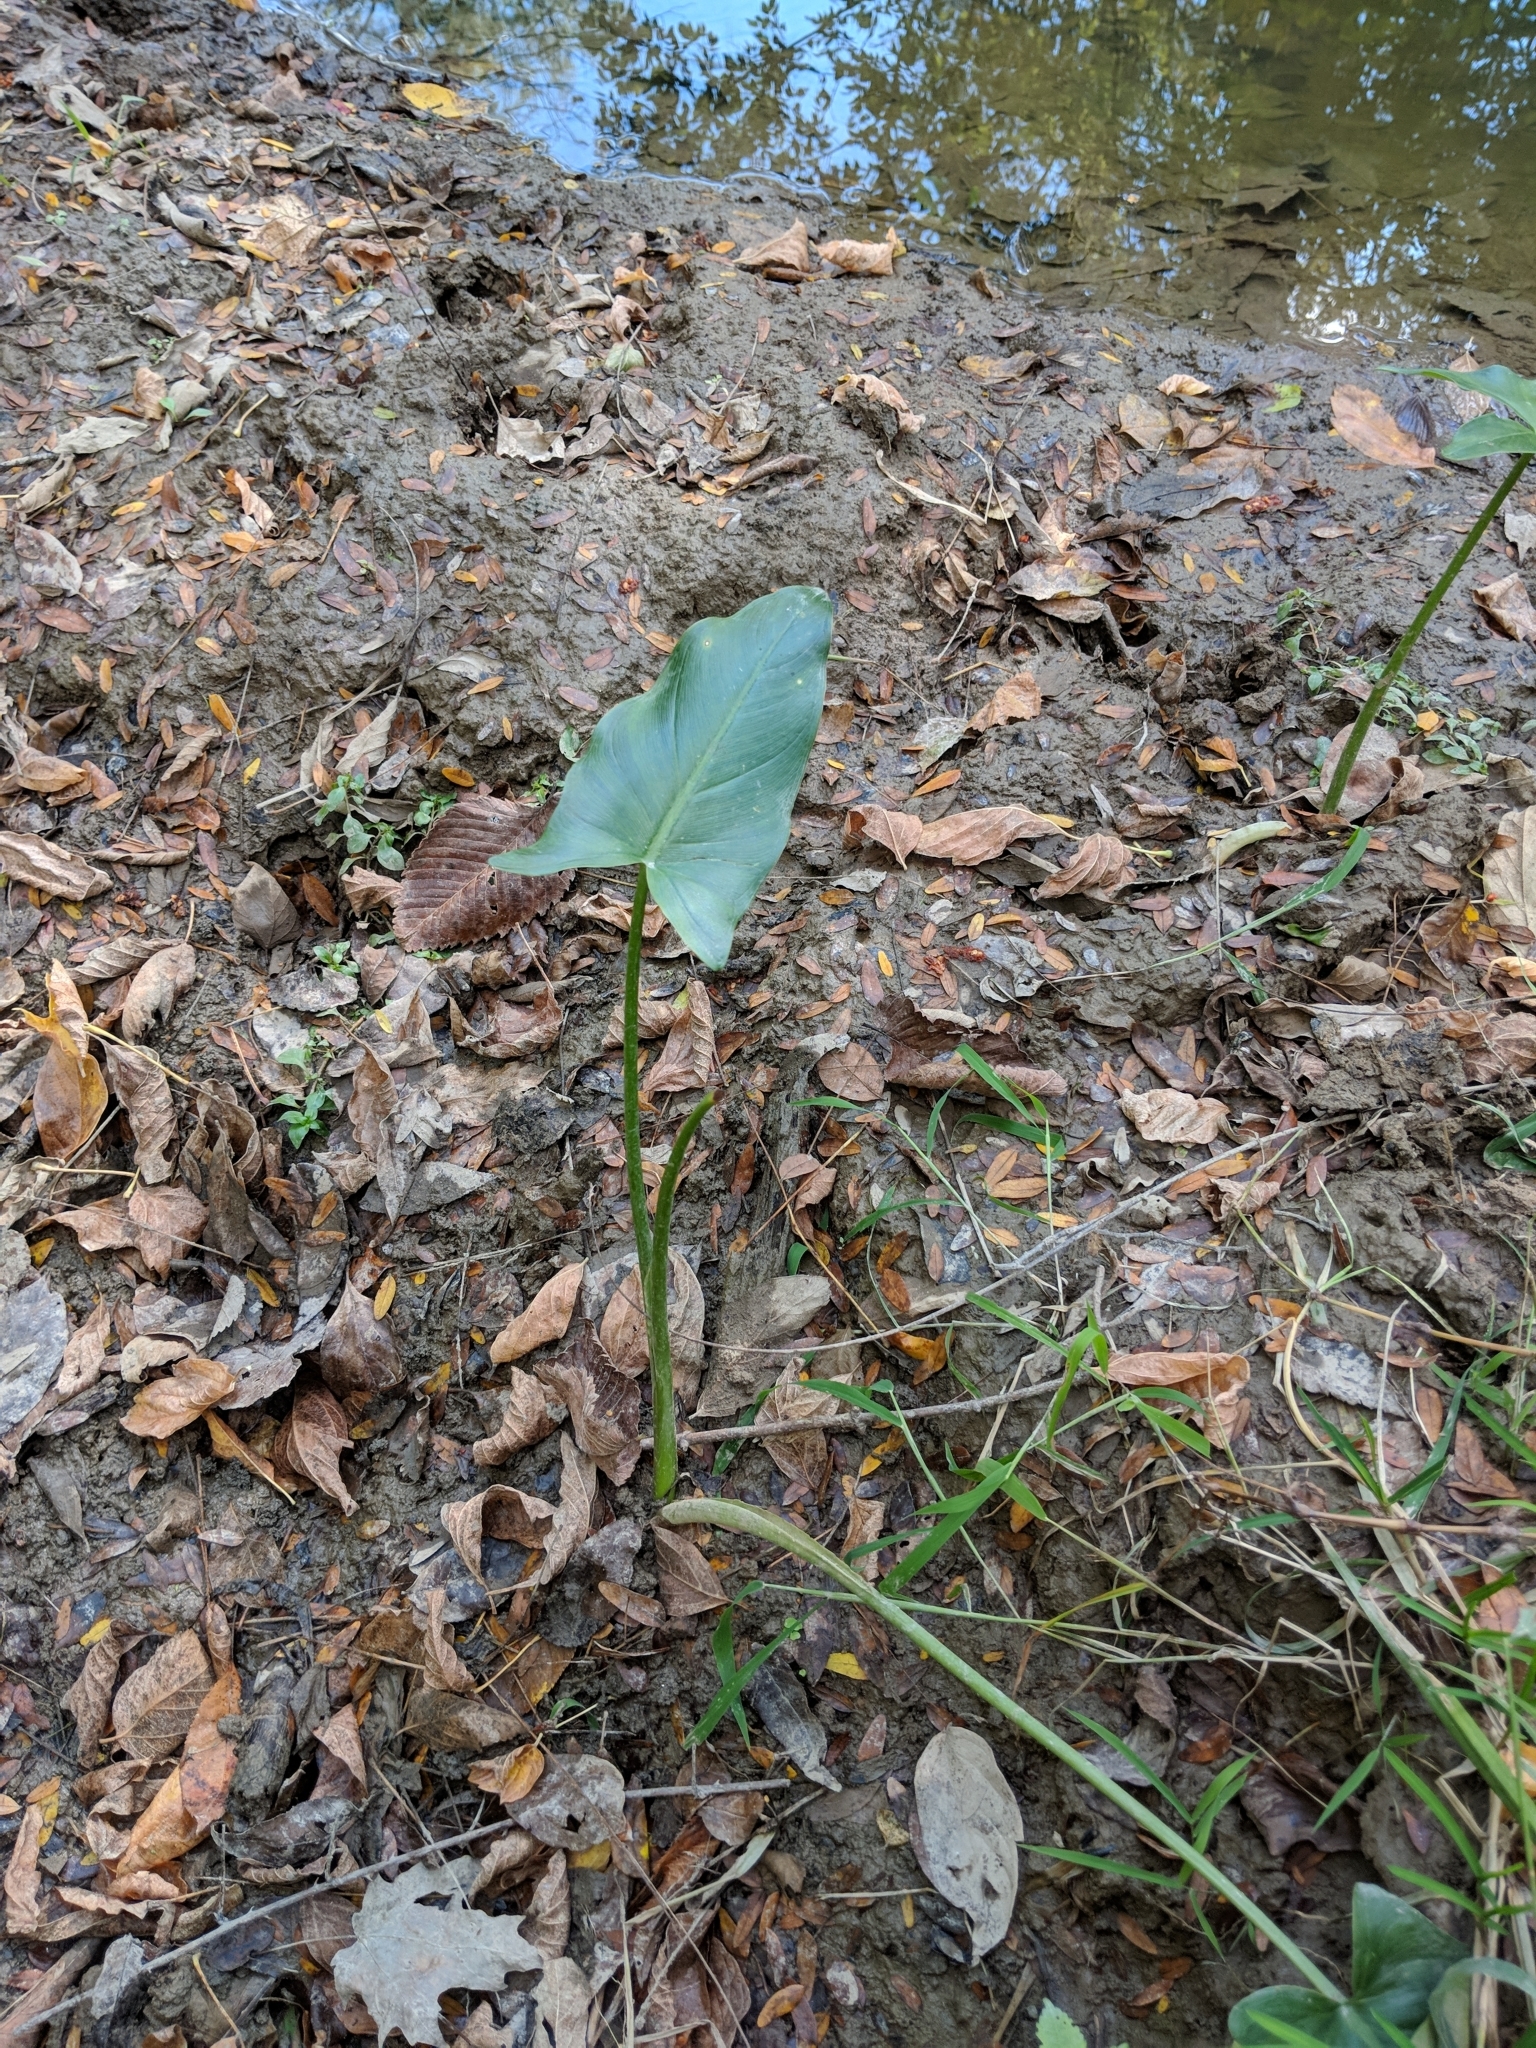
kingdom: Plantae
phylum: Tracheophyta
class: Liliopsida
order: Alismatales
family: Araceae
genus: Peltandra
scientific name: Peltandra virginica
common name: Arrow arum
